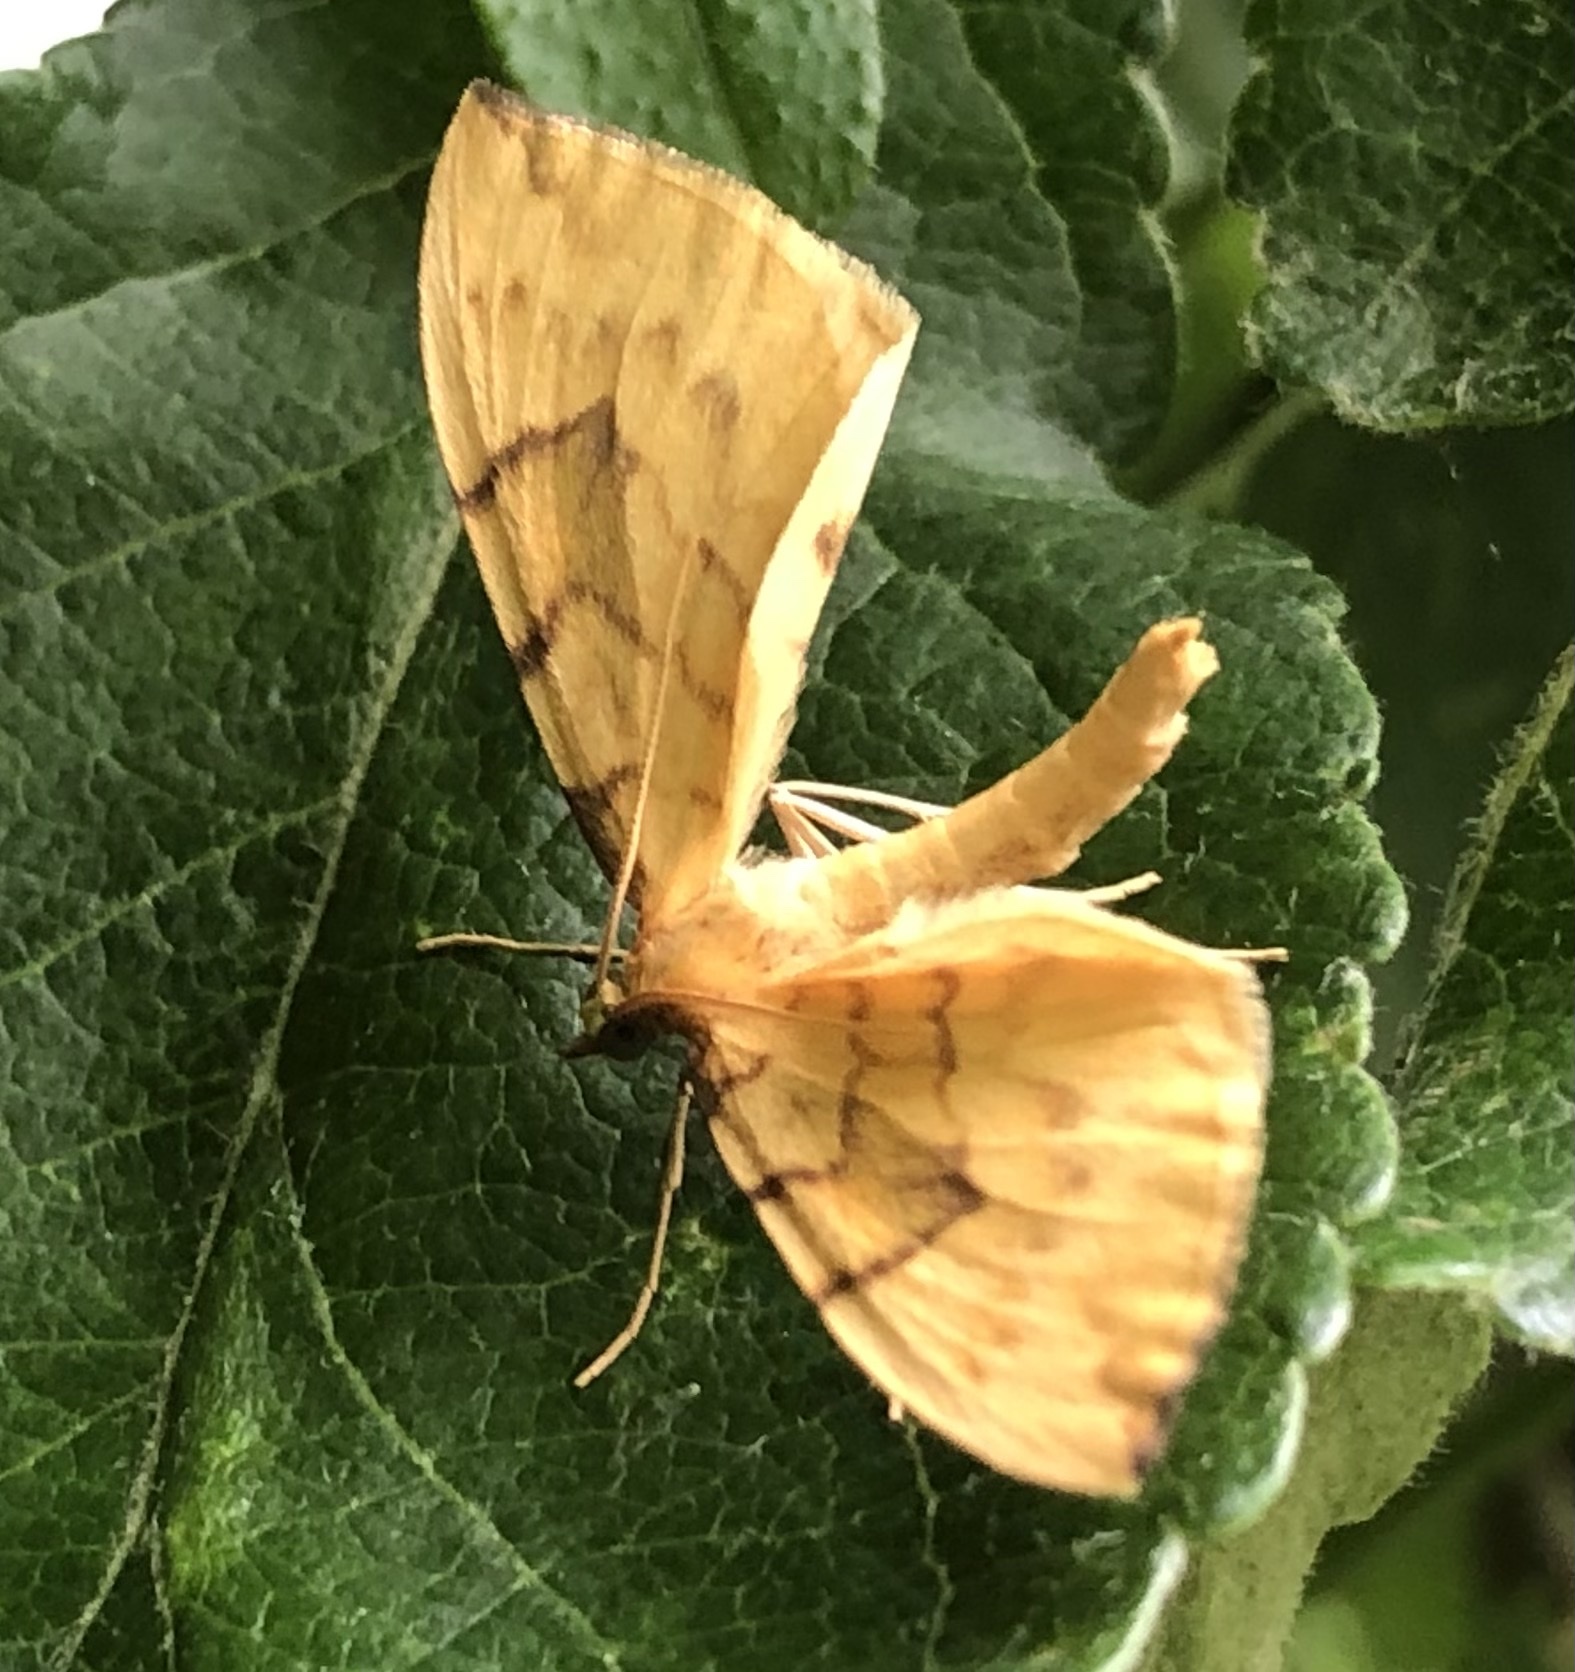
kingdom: Animalia
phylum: Arthropoda
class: Insecta
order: Lepidoptera
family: Geometridae
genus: Eulithis
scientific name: Eulithis pyraliata
